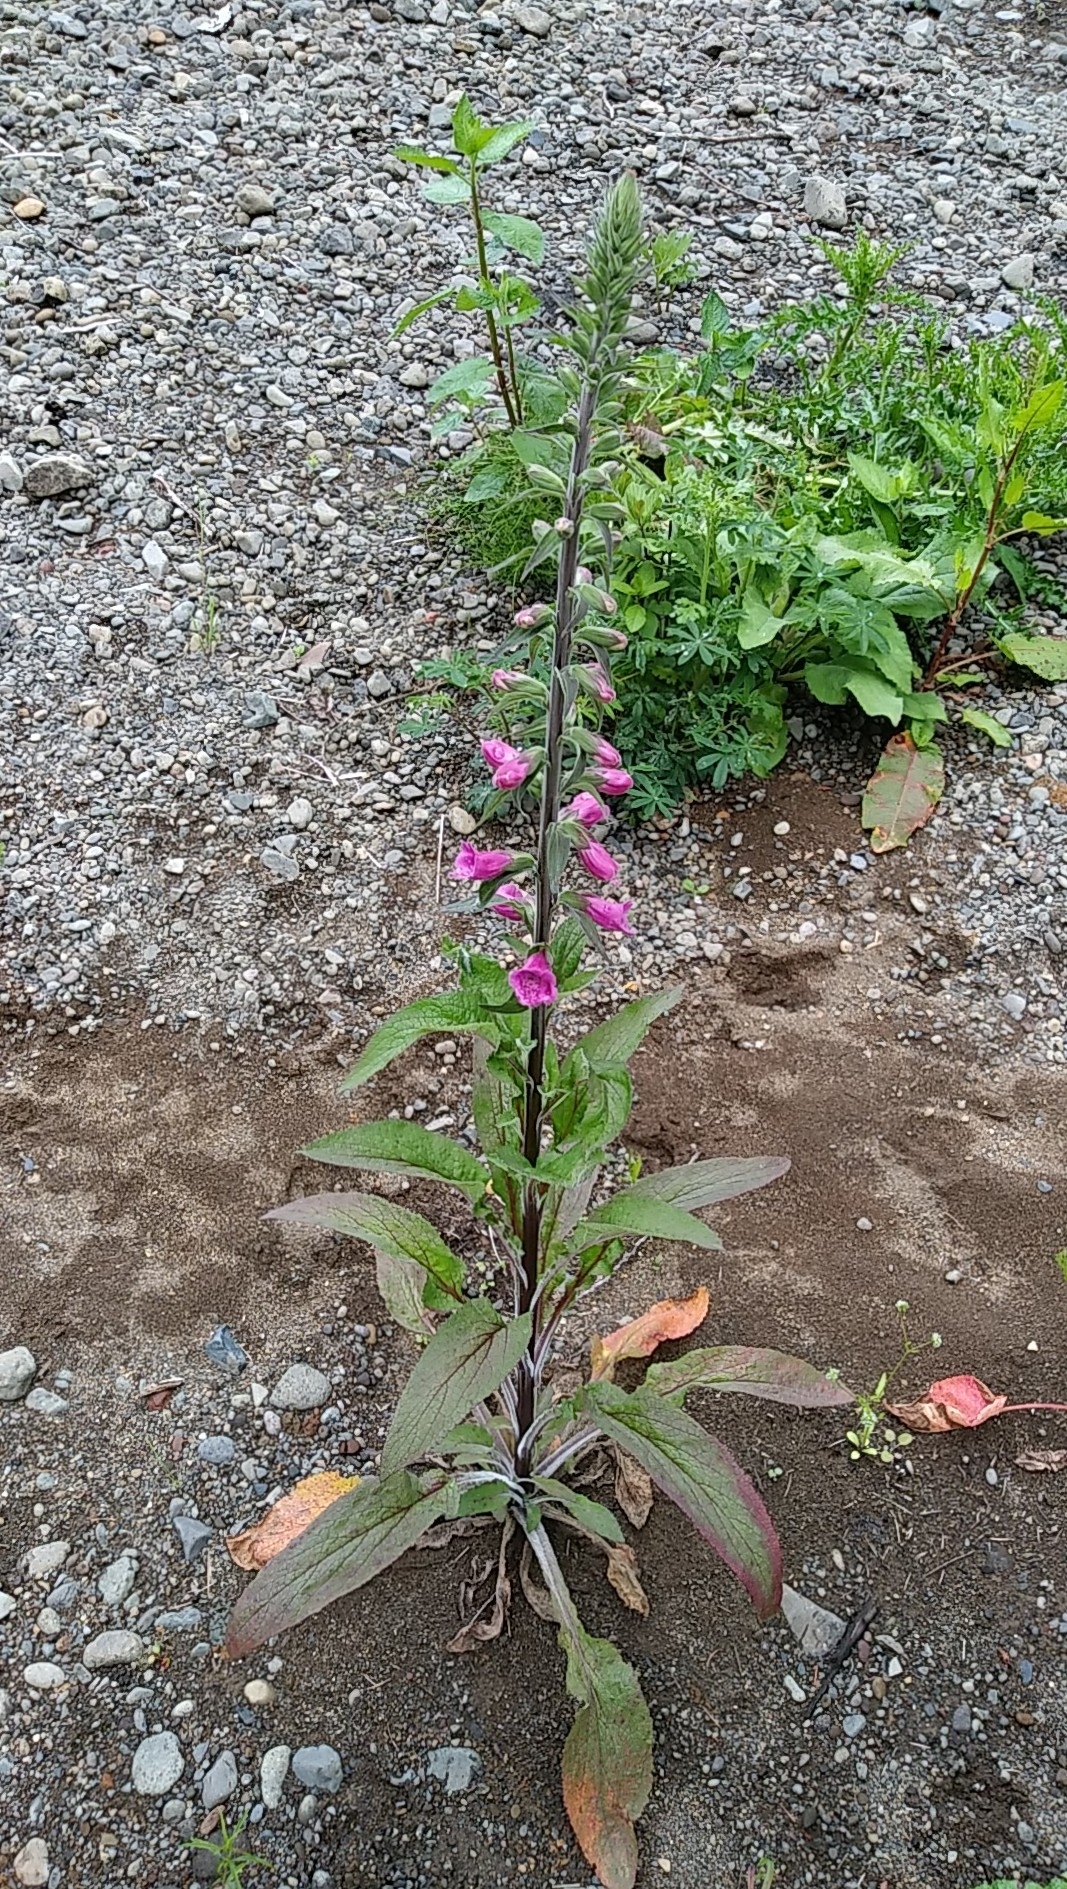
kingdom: Plantae
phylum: Tracheophyta
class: Magnoliopsida
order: Lamiales
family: Plantaginaceae
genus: Digitalis
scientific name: Digitalis purpurea
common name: Foxglove
